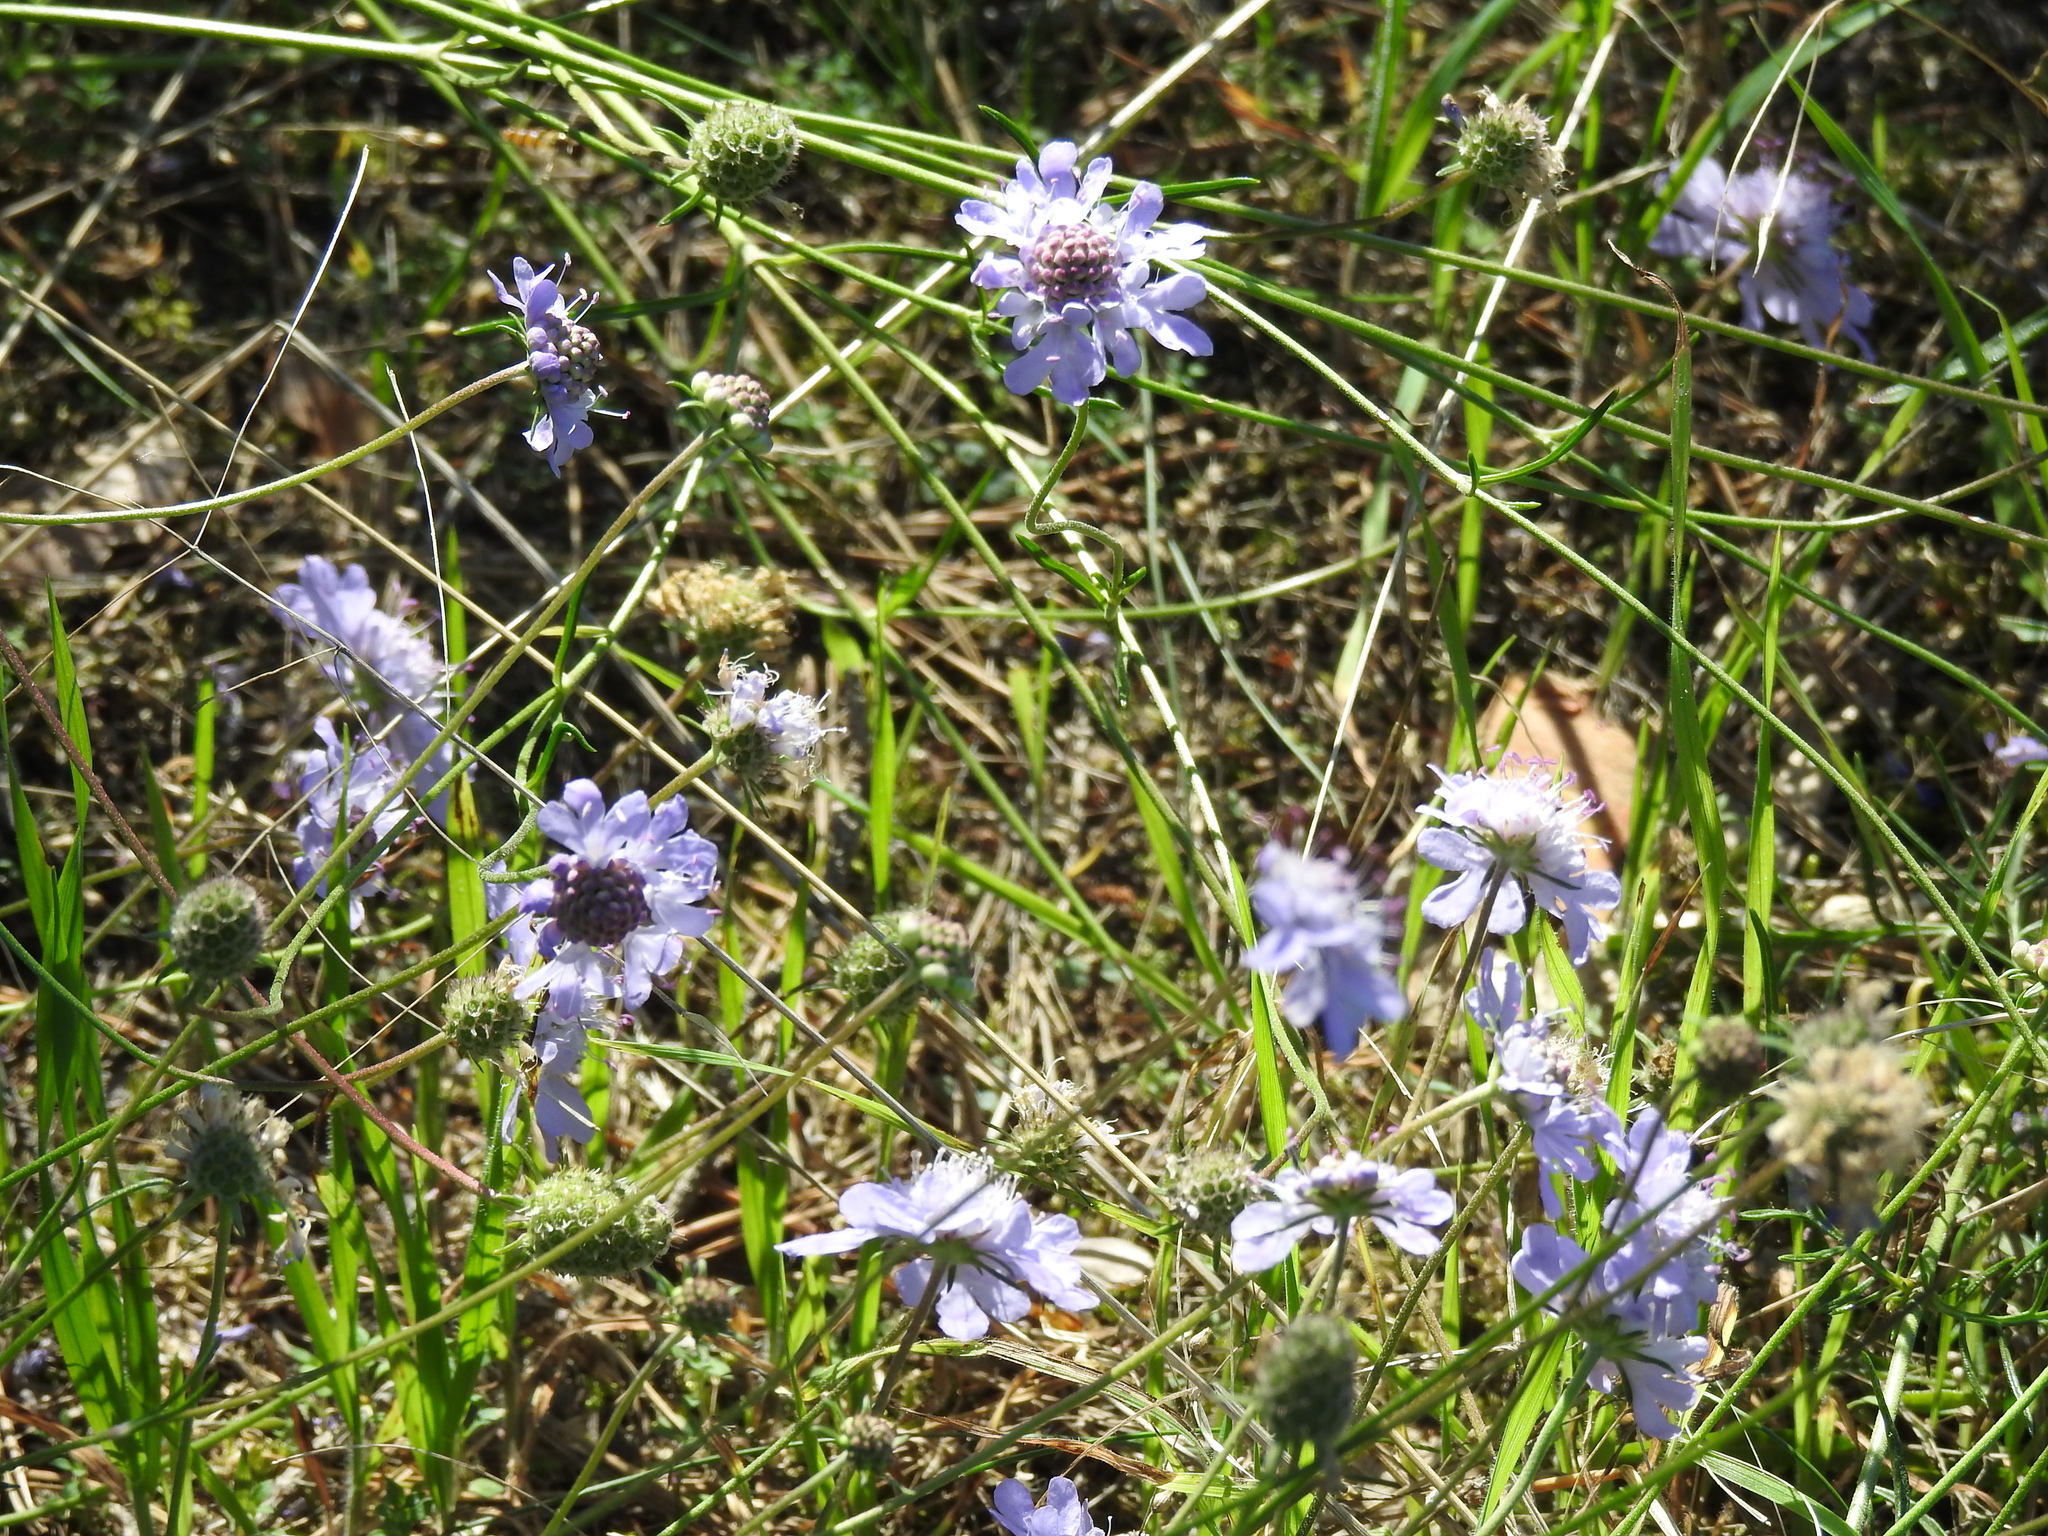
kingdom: Plantae
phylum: Tracheophyta
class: Magnoliopsida
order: Dipsacales
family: Caprifoliaceae
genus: Scabiosa
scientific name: Scabiosa canescens
